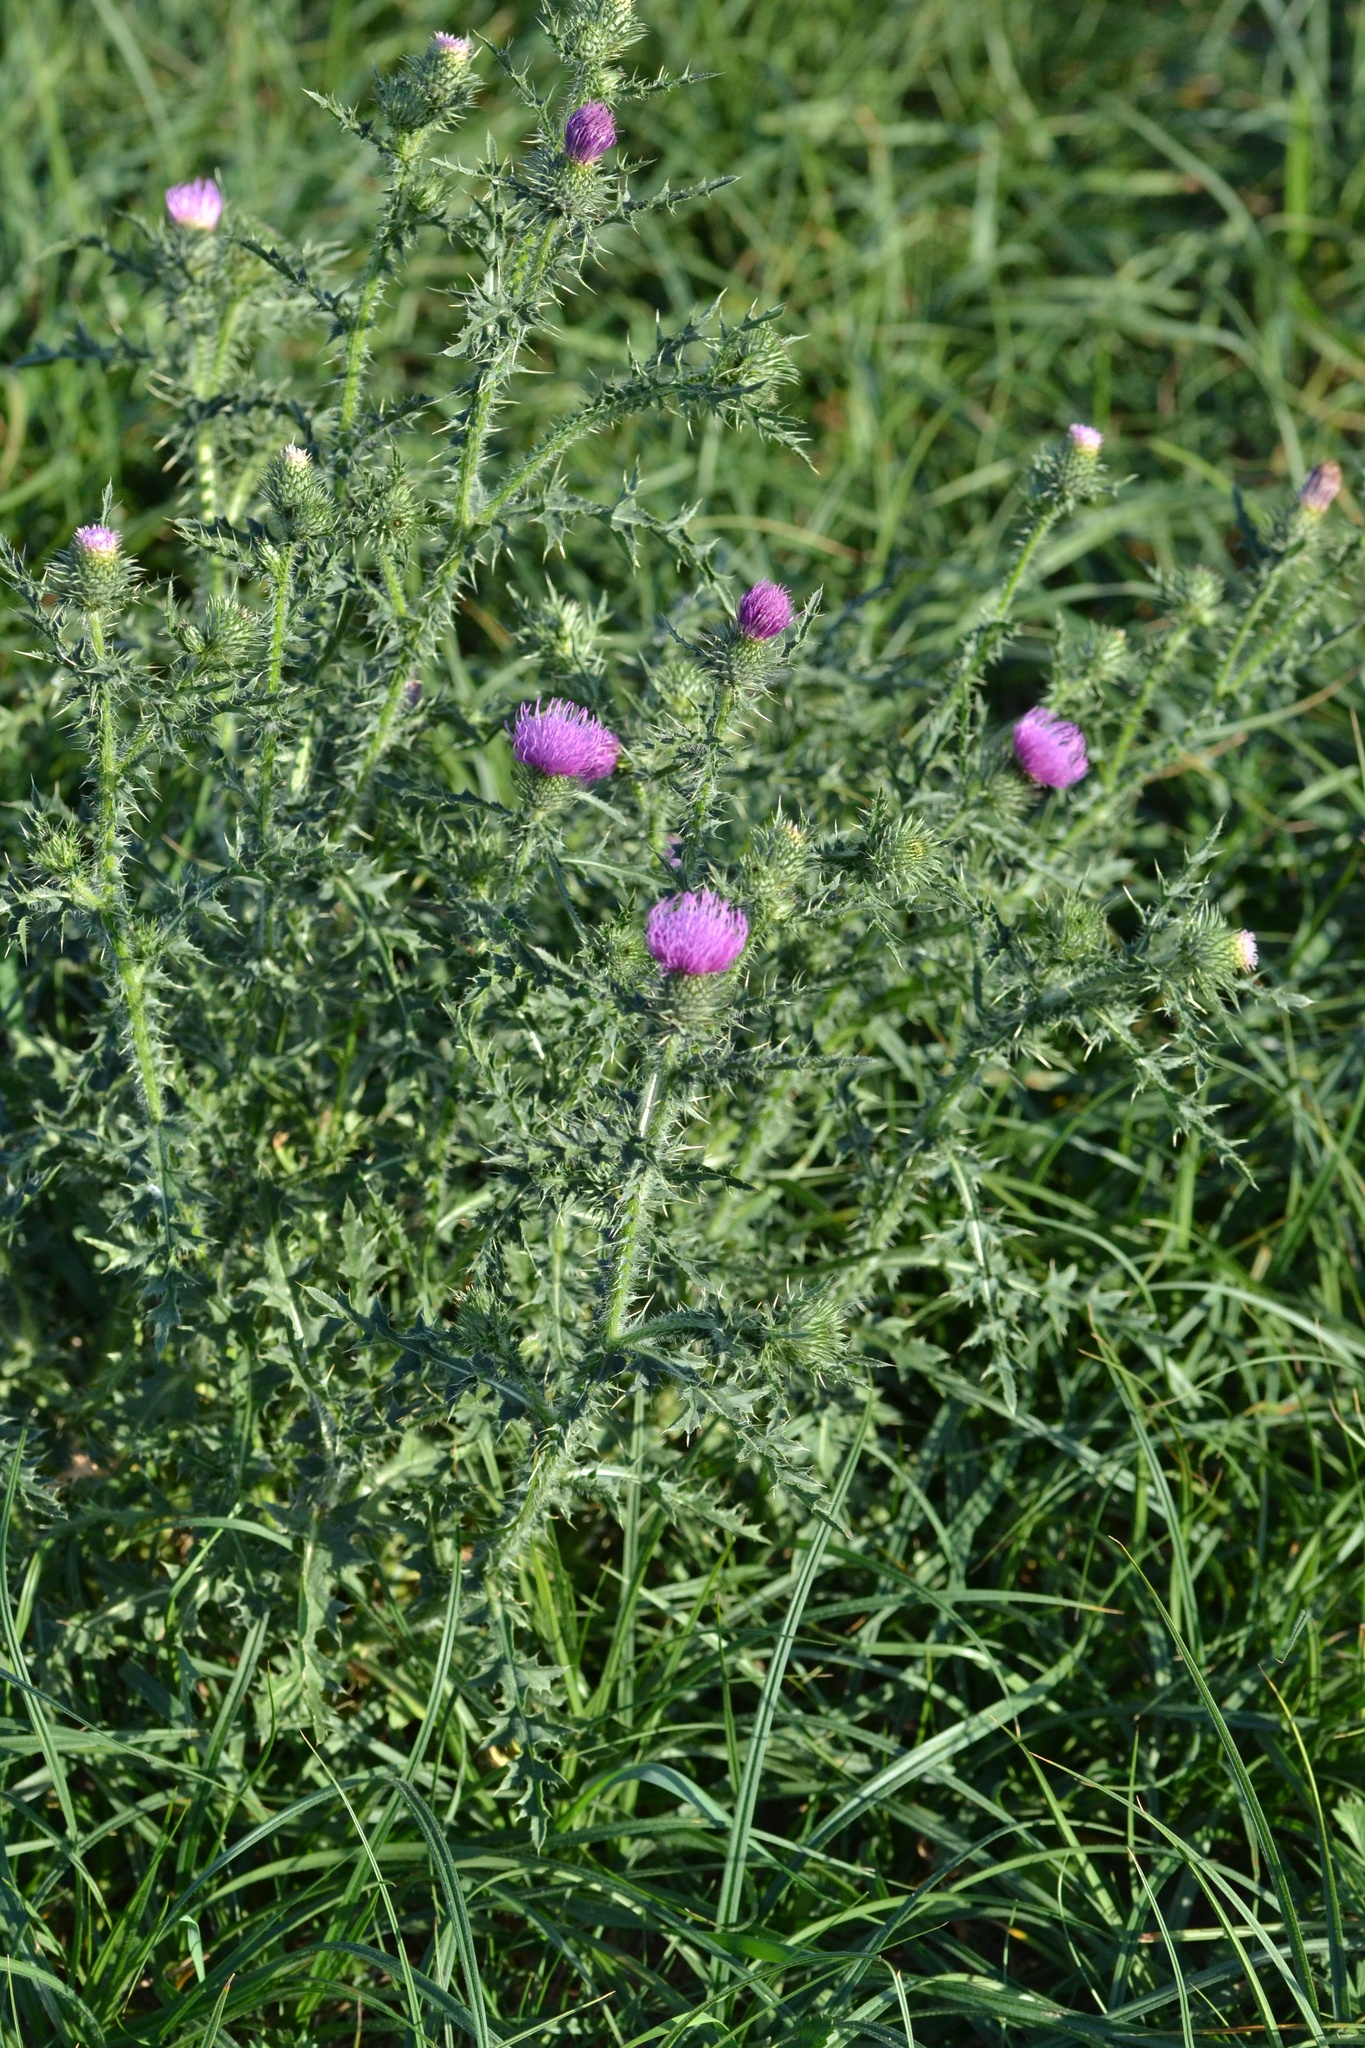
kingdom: Plantae
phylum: Tracheophyta
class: Magnoliopsida
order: Asterales
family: Asteraceae
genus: Carduus
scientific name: Carduus acanthoides
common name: Plumeless thistle
